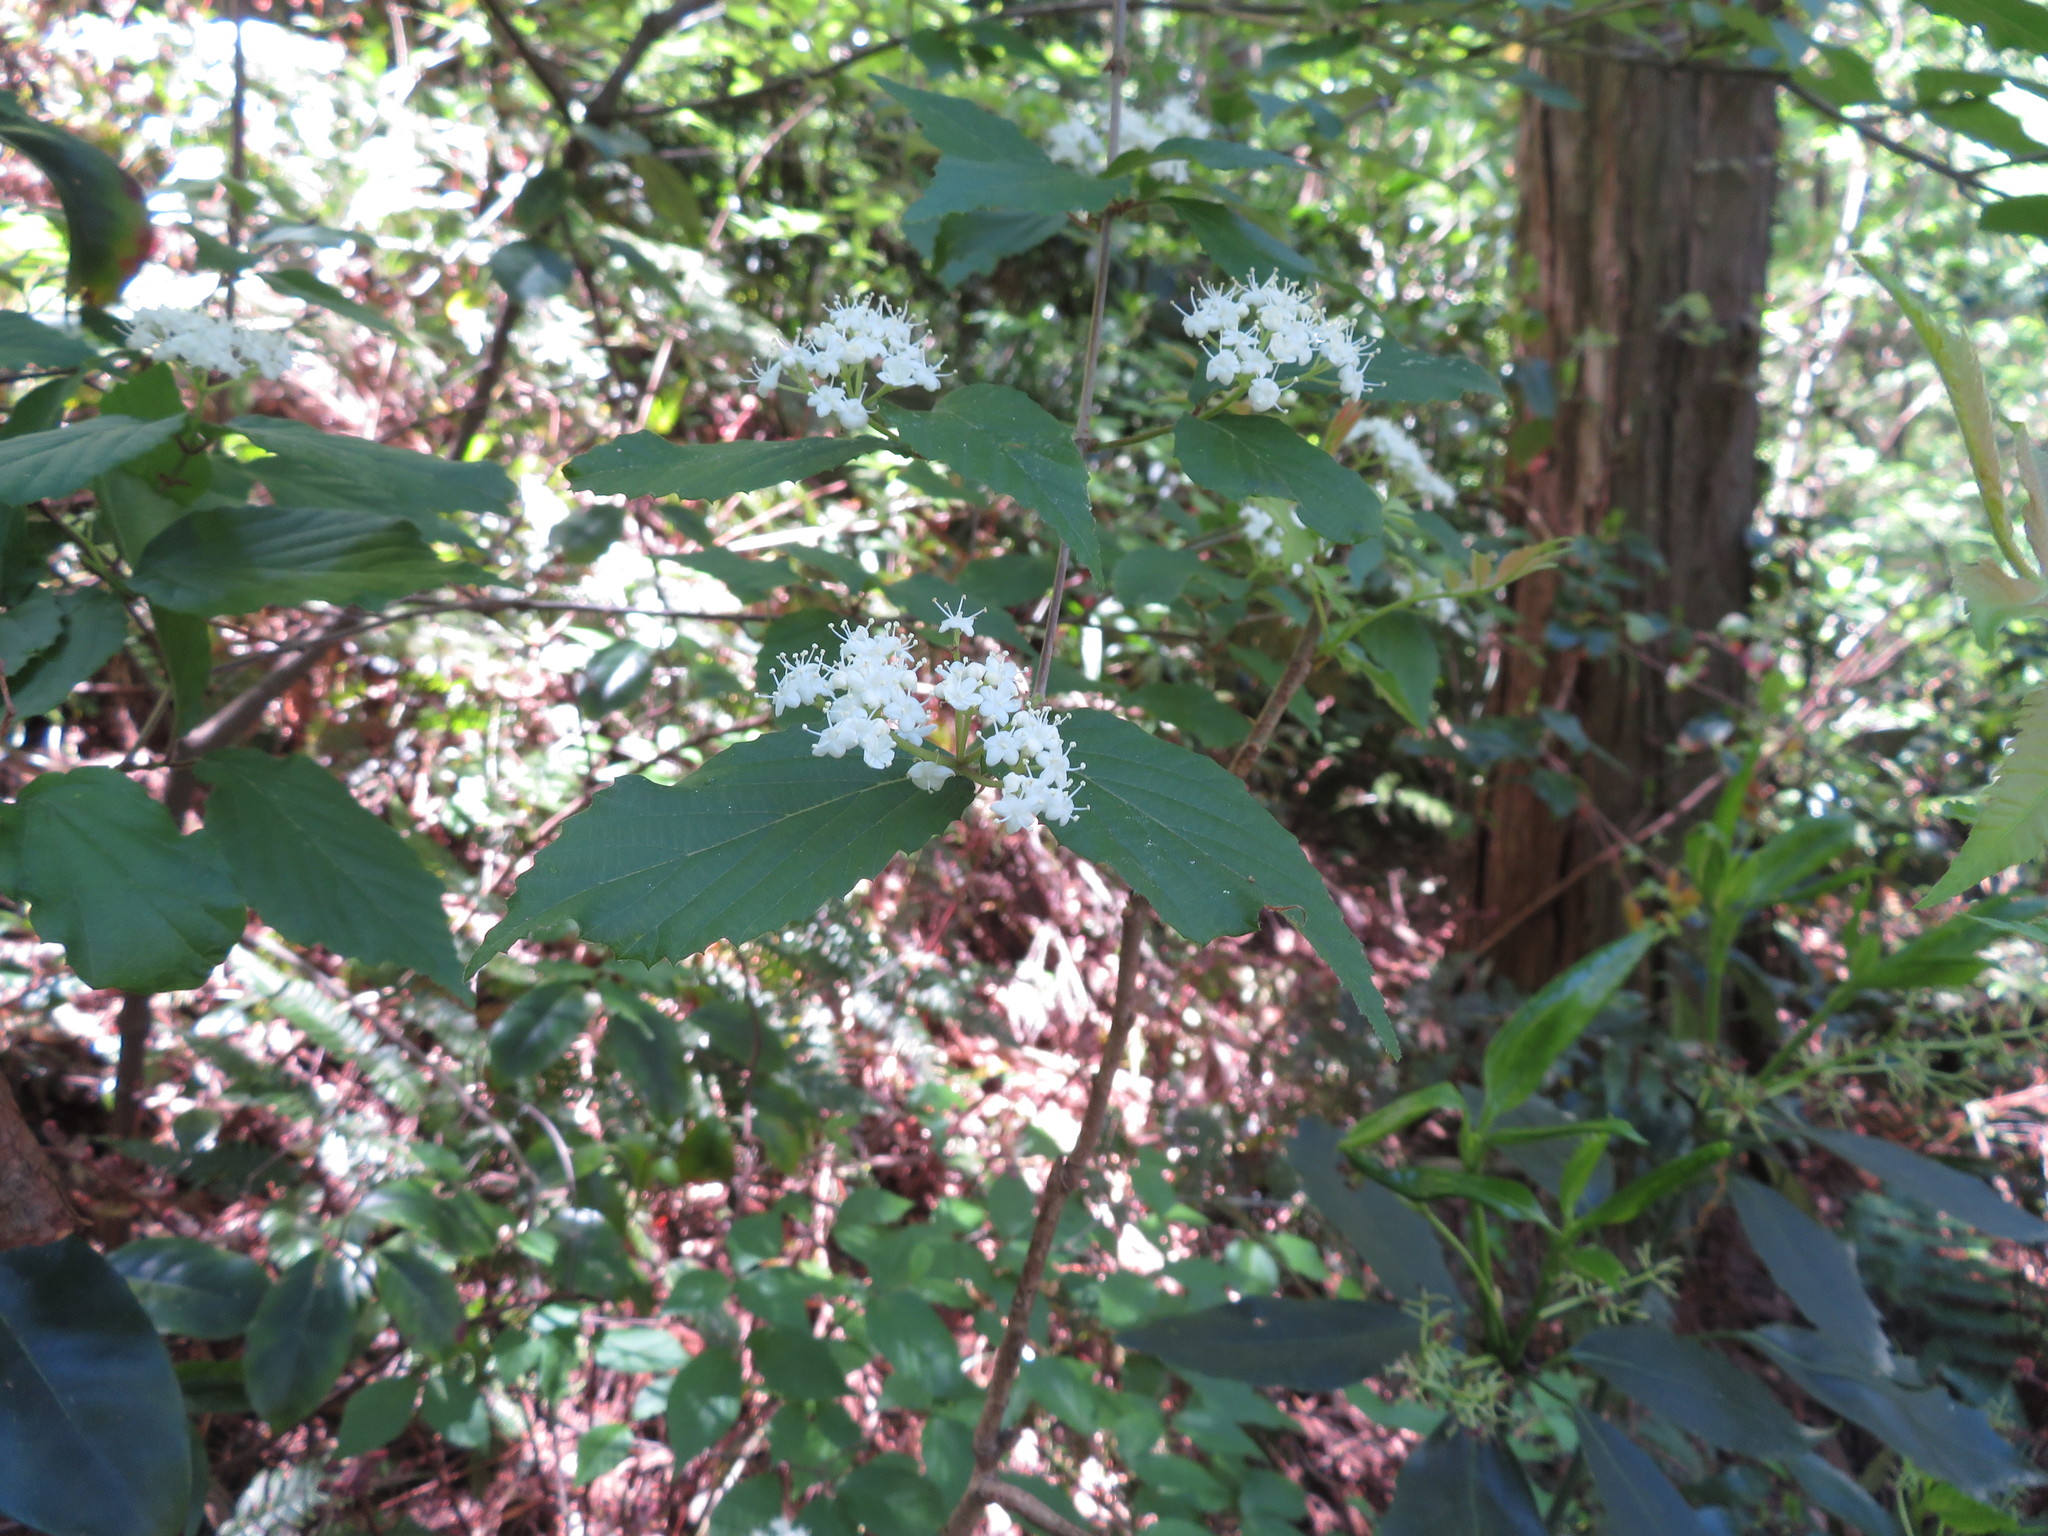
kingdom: Plantae
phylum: Tracheophyta
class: Magnoliopsida
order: Dipsacales
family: Viburnaceae
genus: Viburnum
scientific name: Viburnum erosum
